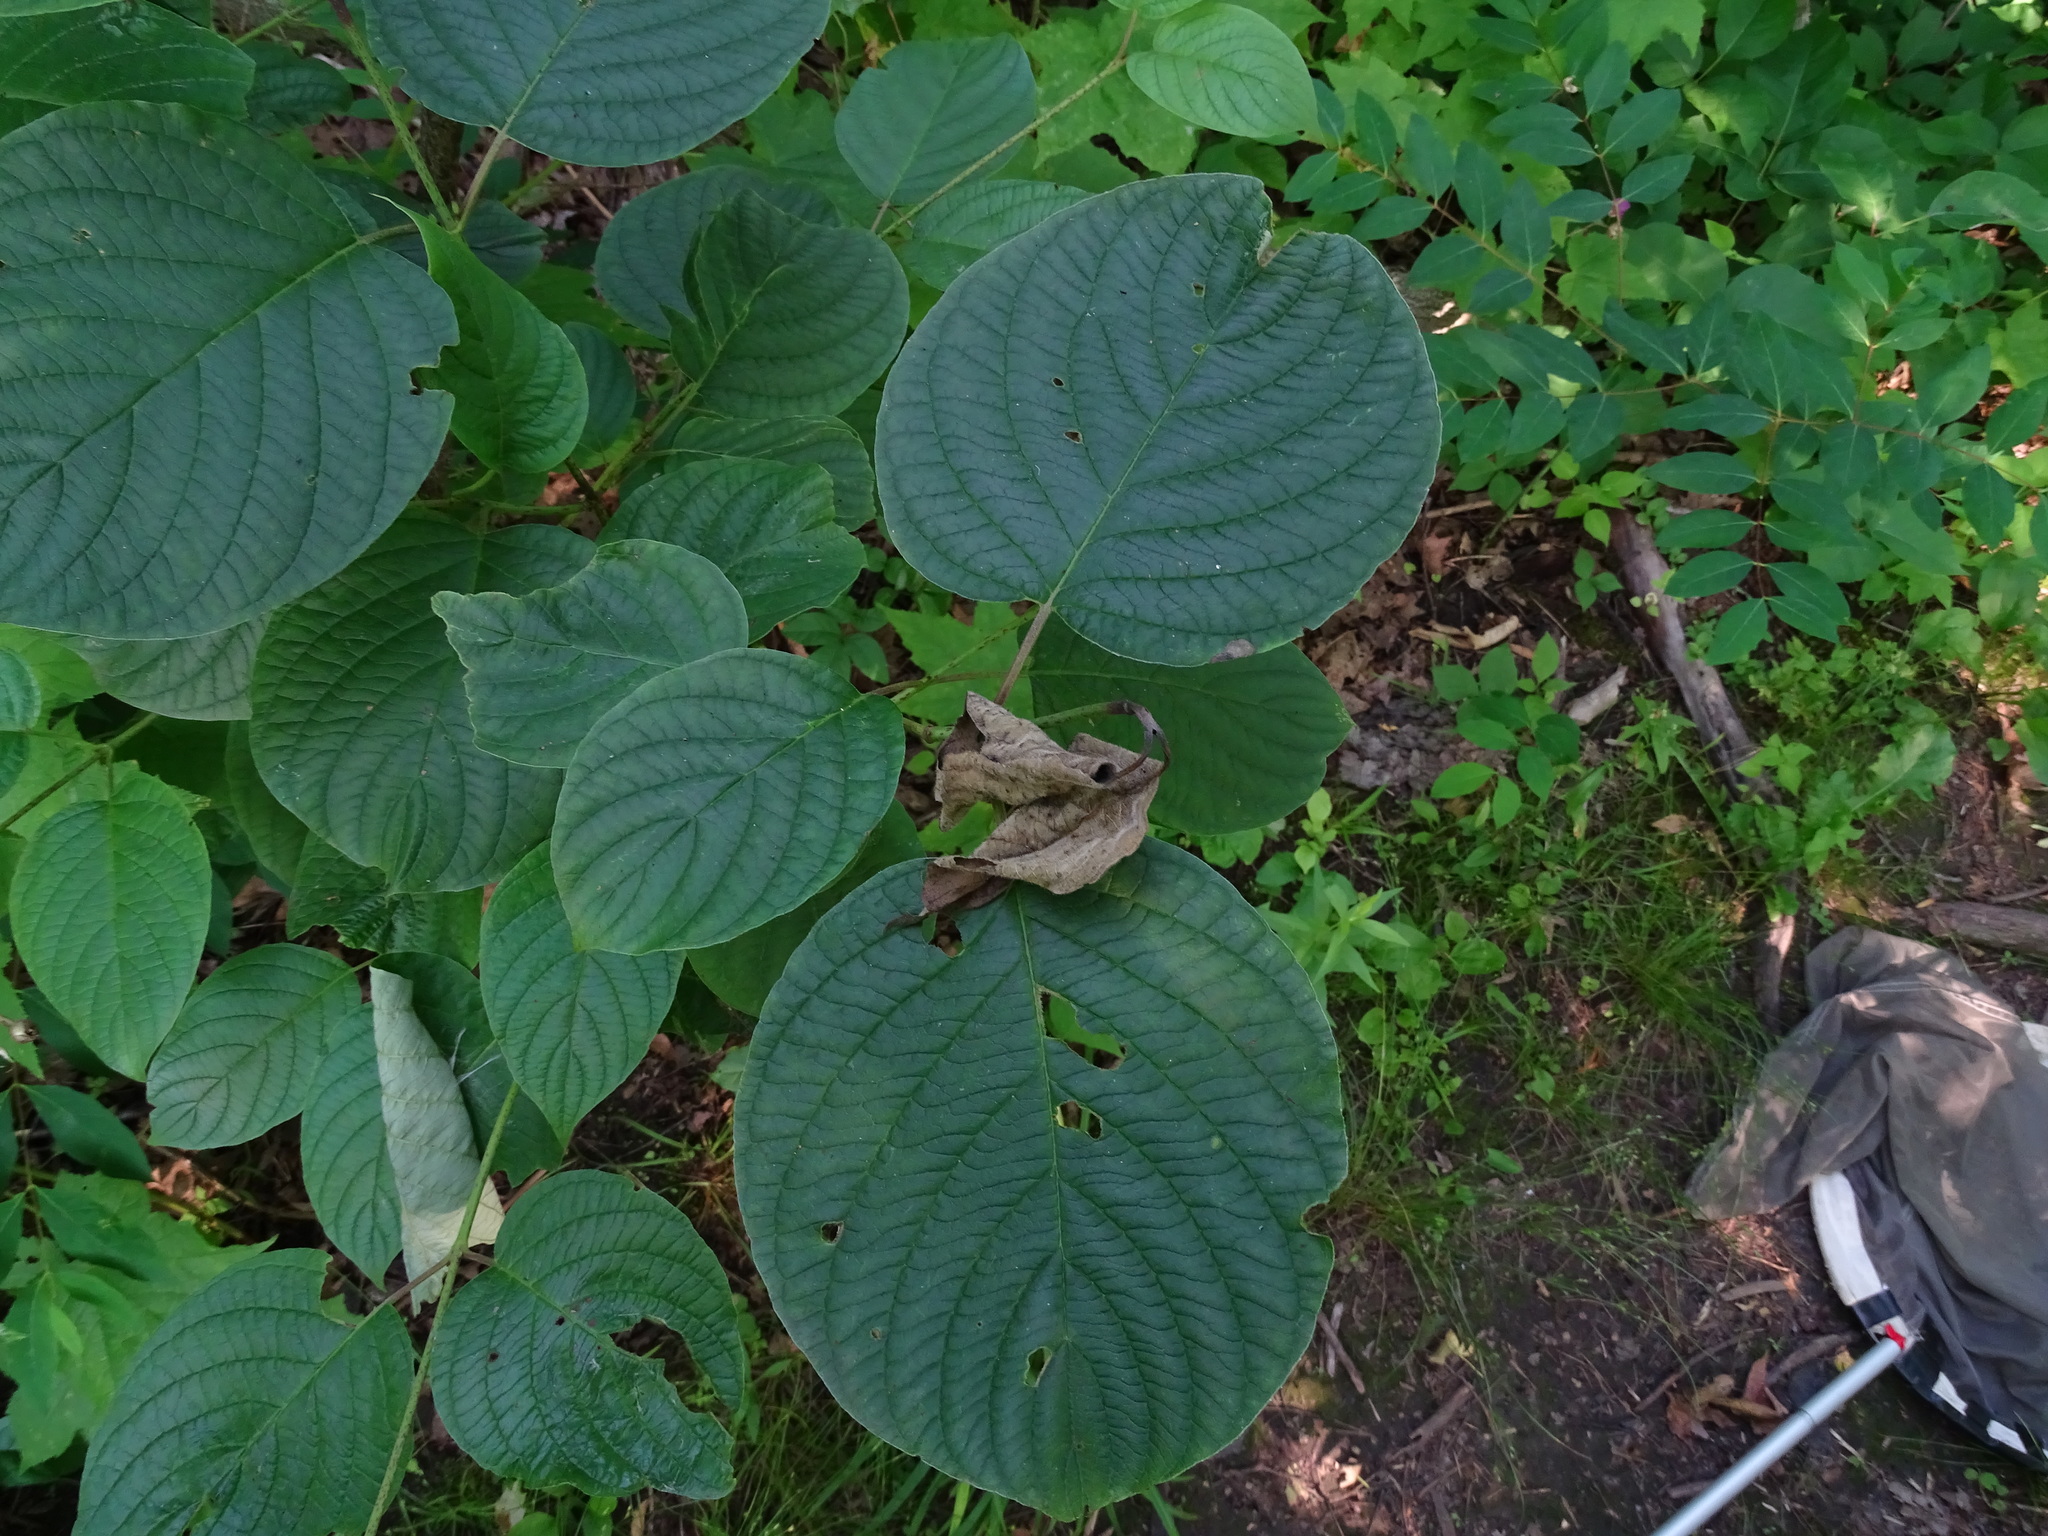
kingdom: Plantae
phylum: Tracheophyta
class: Magnoliopsida
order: Cornales
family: Cornaceae
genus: Cornus
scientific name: Cornus rugosa
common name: Round-leaf dogwood
